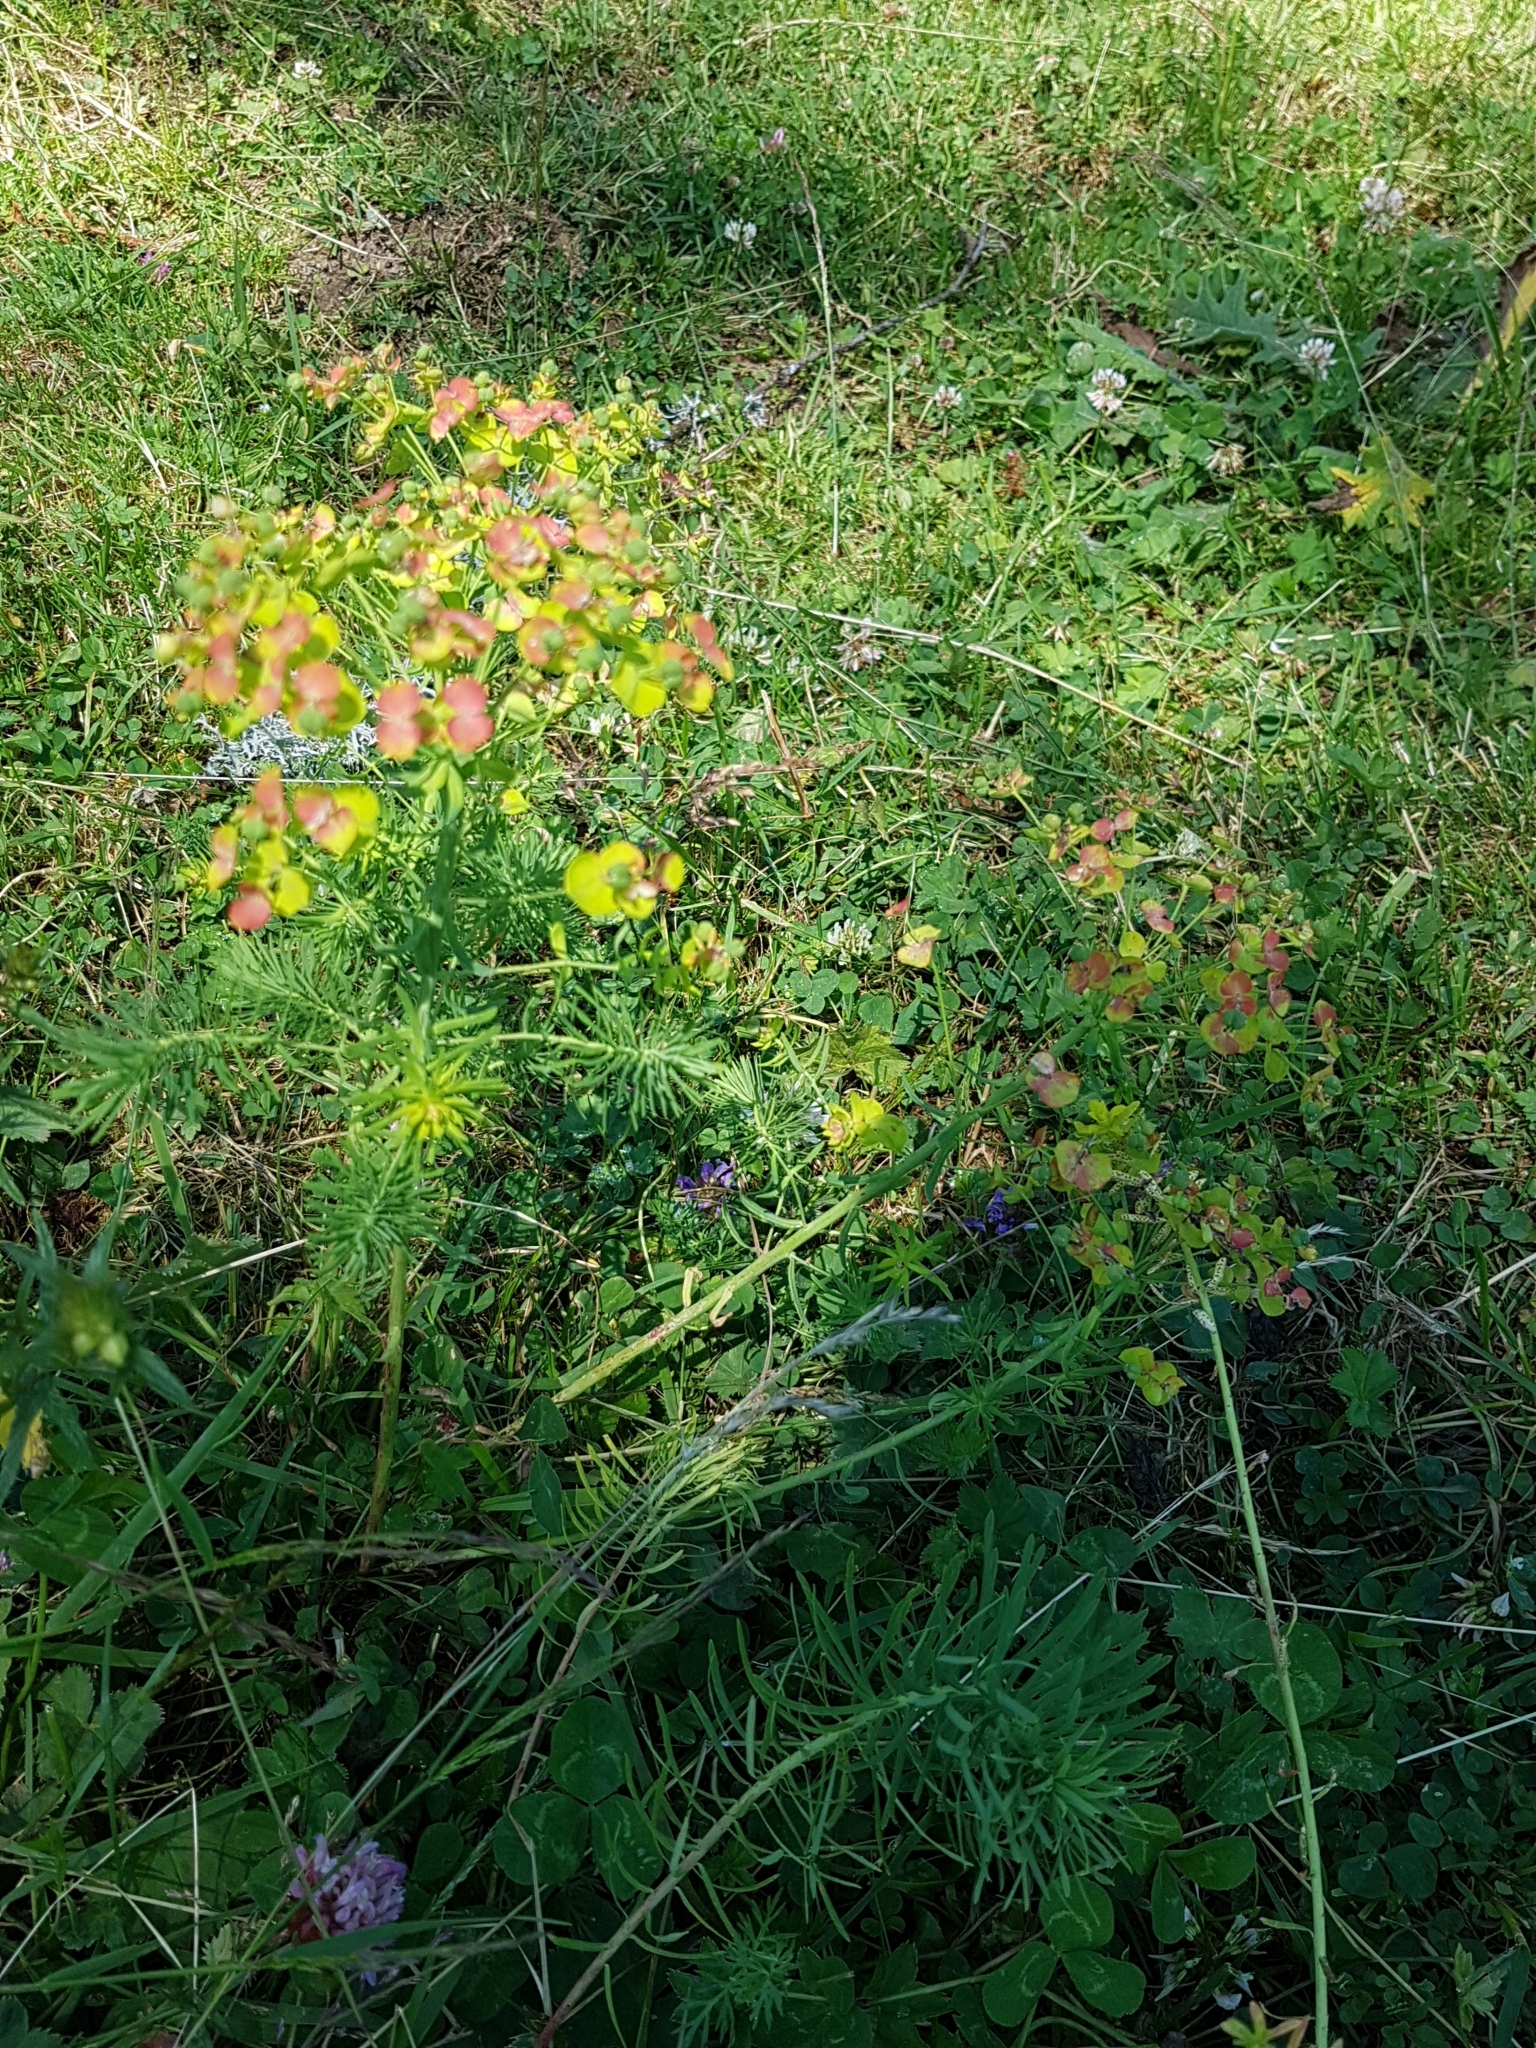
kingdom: Plantae
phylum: Tracheophyta
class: Magnoliopsida
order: Malpighiales
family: Euphorbiaceae
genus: Euphorbia
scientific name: Euphorbia cyparissias
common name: Cypress spurge
